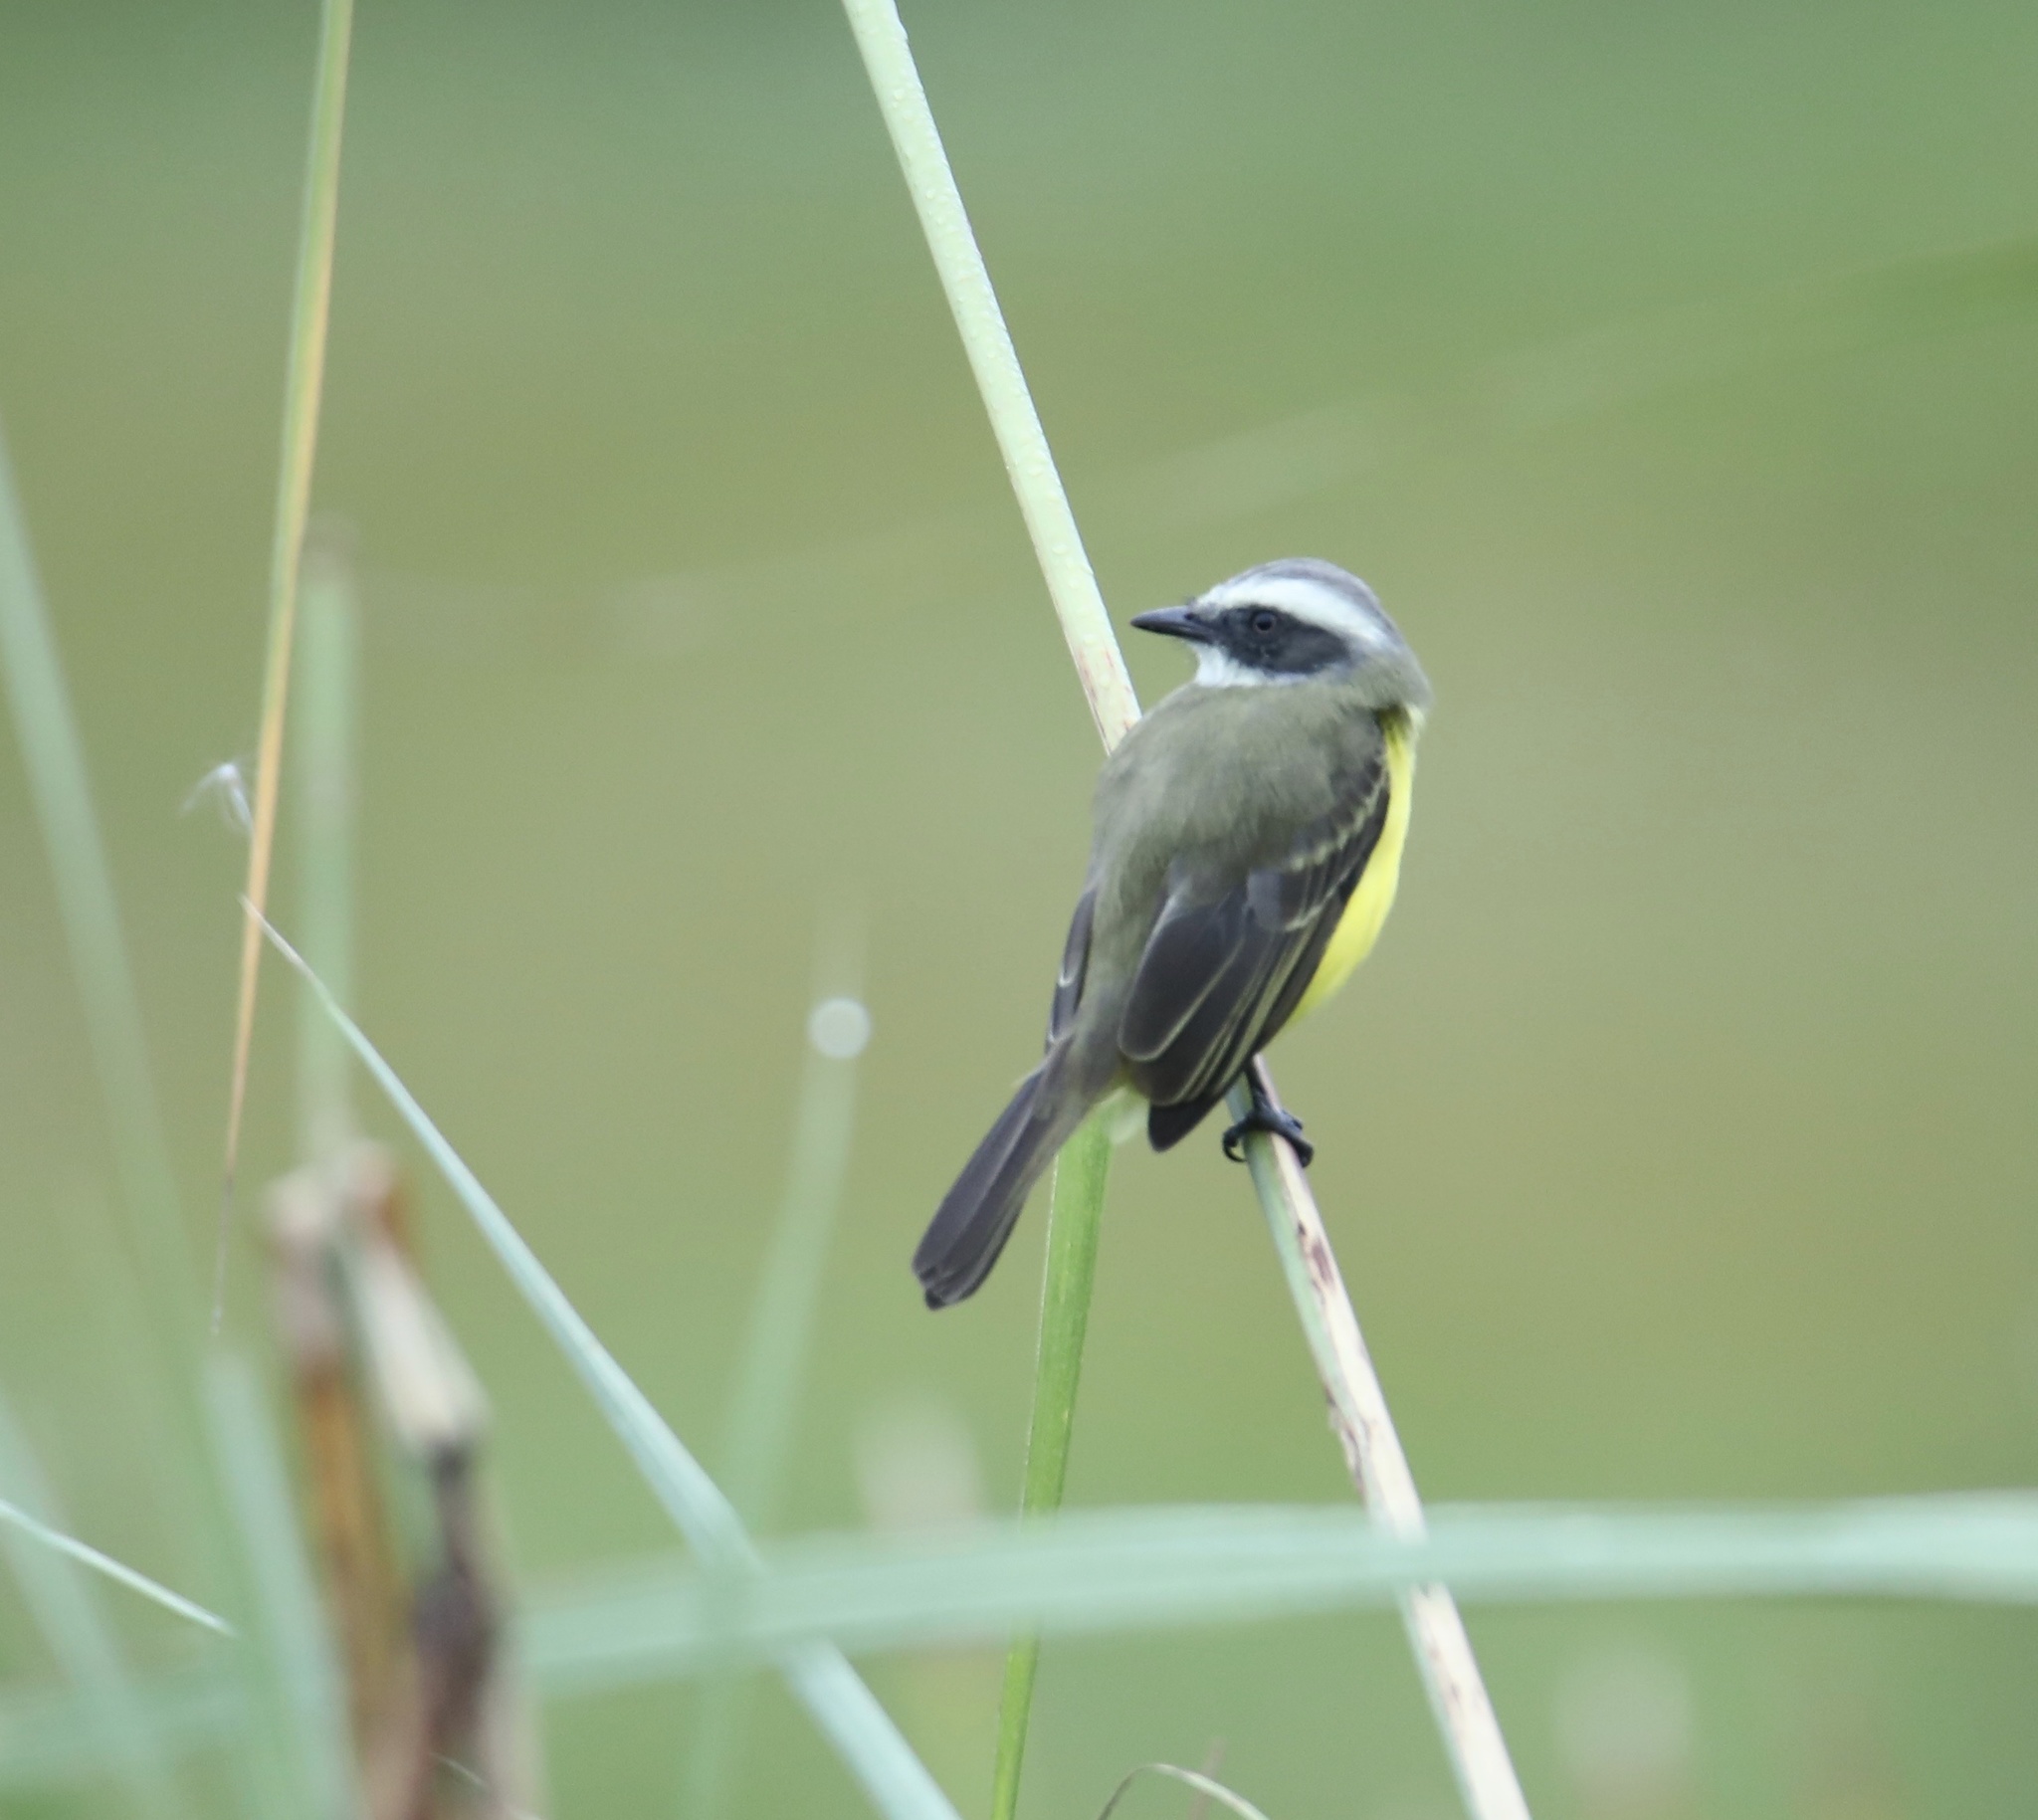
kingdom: Animalia
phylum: Chordata
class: Aves
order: Passeriformes
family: Tyrannidae
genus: Myiozetetes
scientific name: Myiozetetes similis
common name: Social flycatcher
